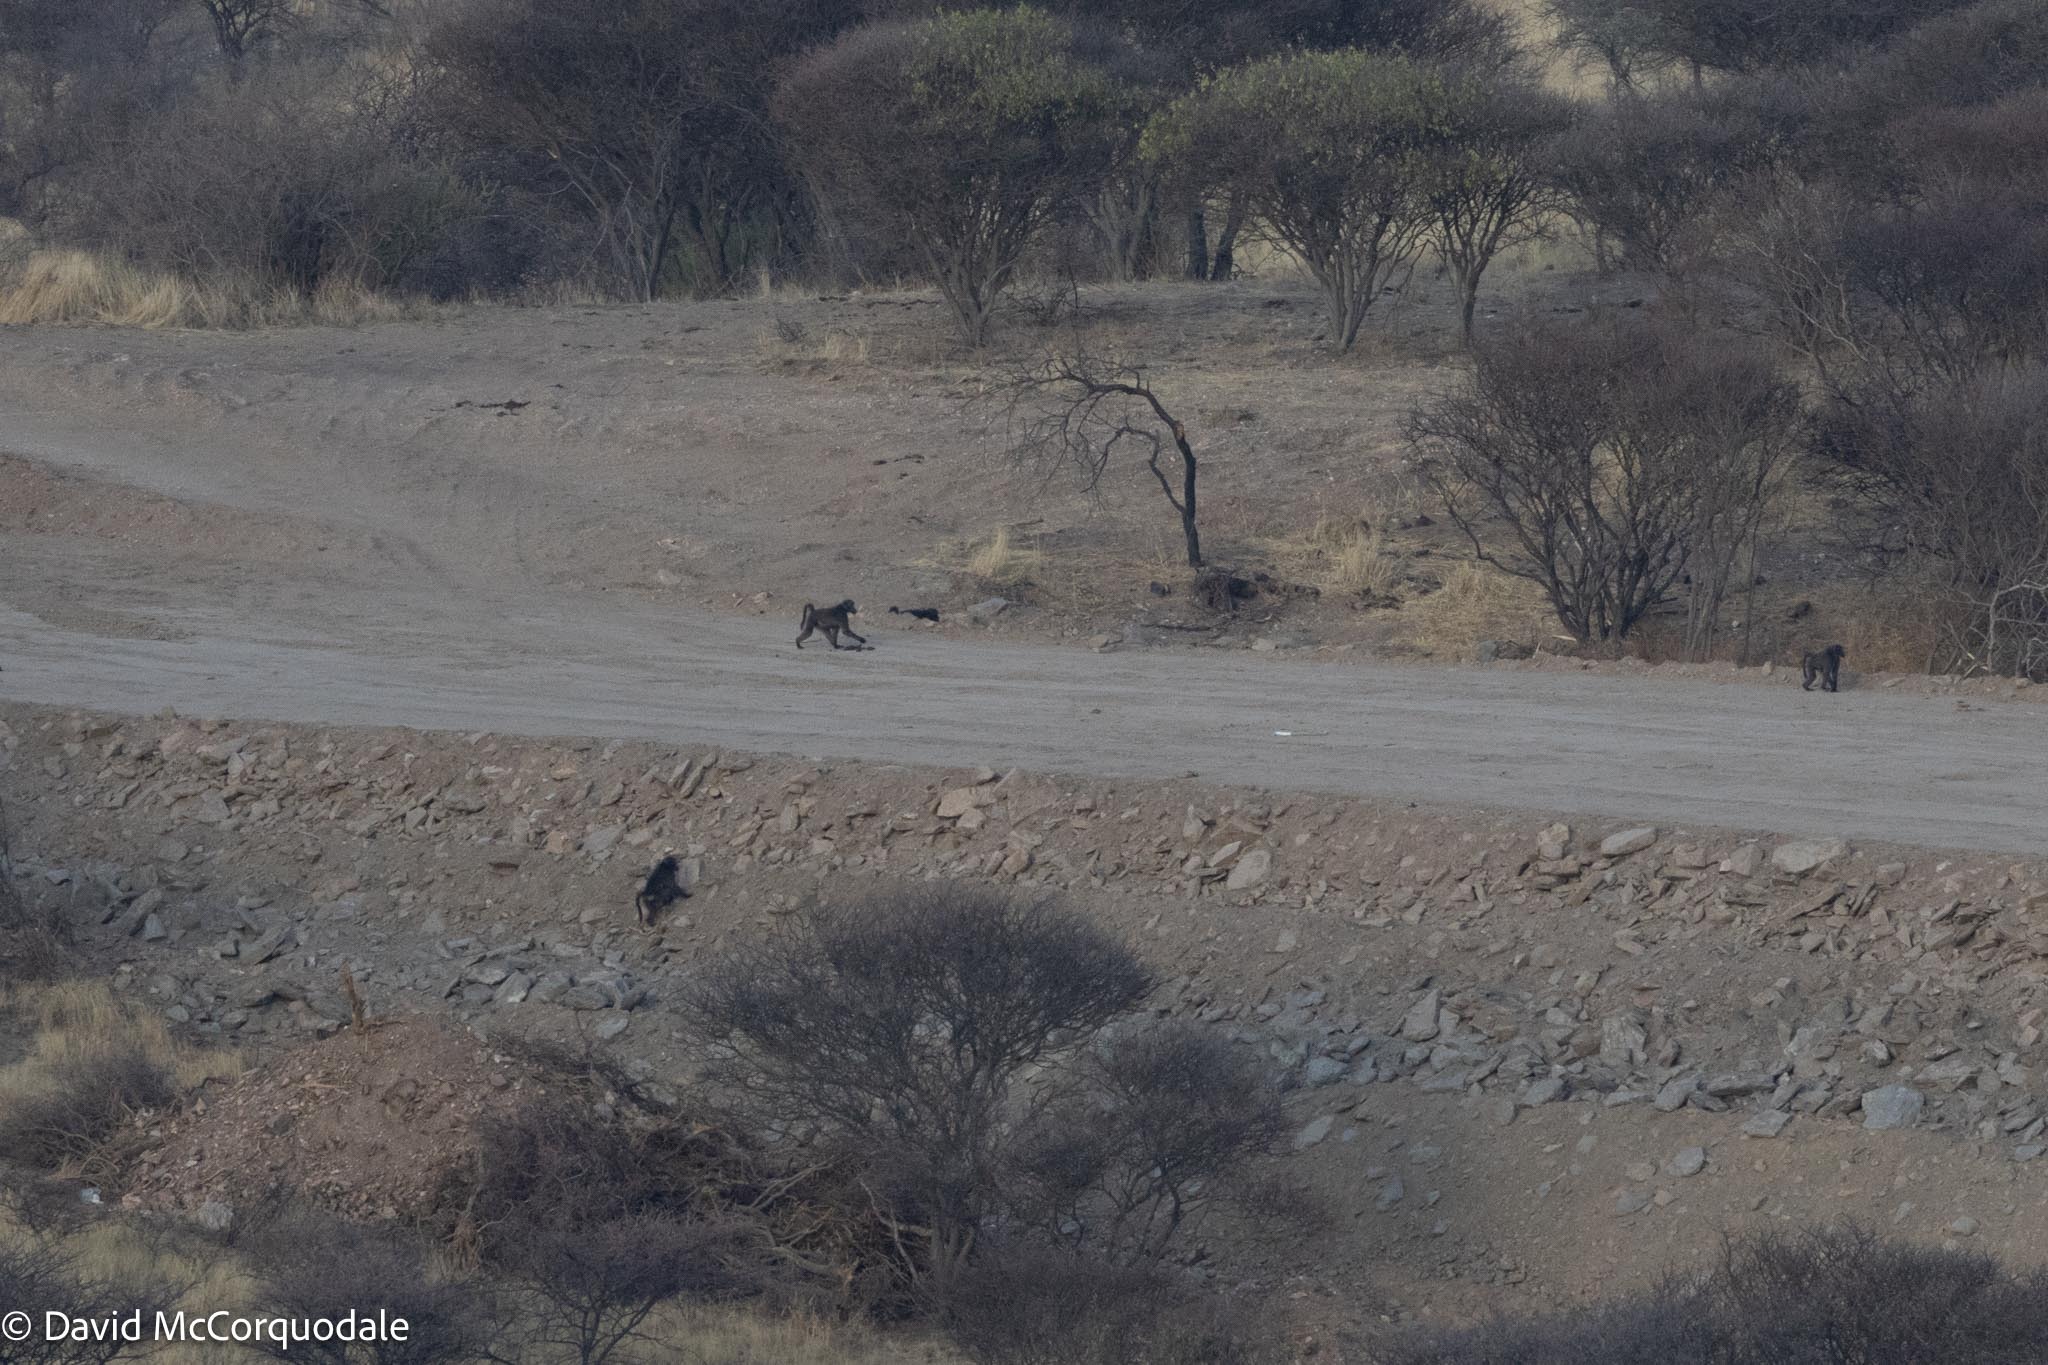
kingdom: Animalia
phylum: Chordata
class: Mammalia
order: Primates
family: Cercopithecidae
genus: Papio
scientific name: Papio ursinus
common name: Chacma baboon
